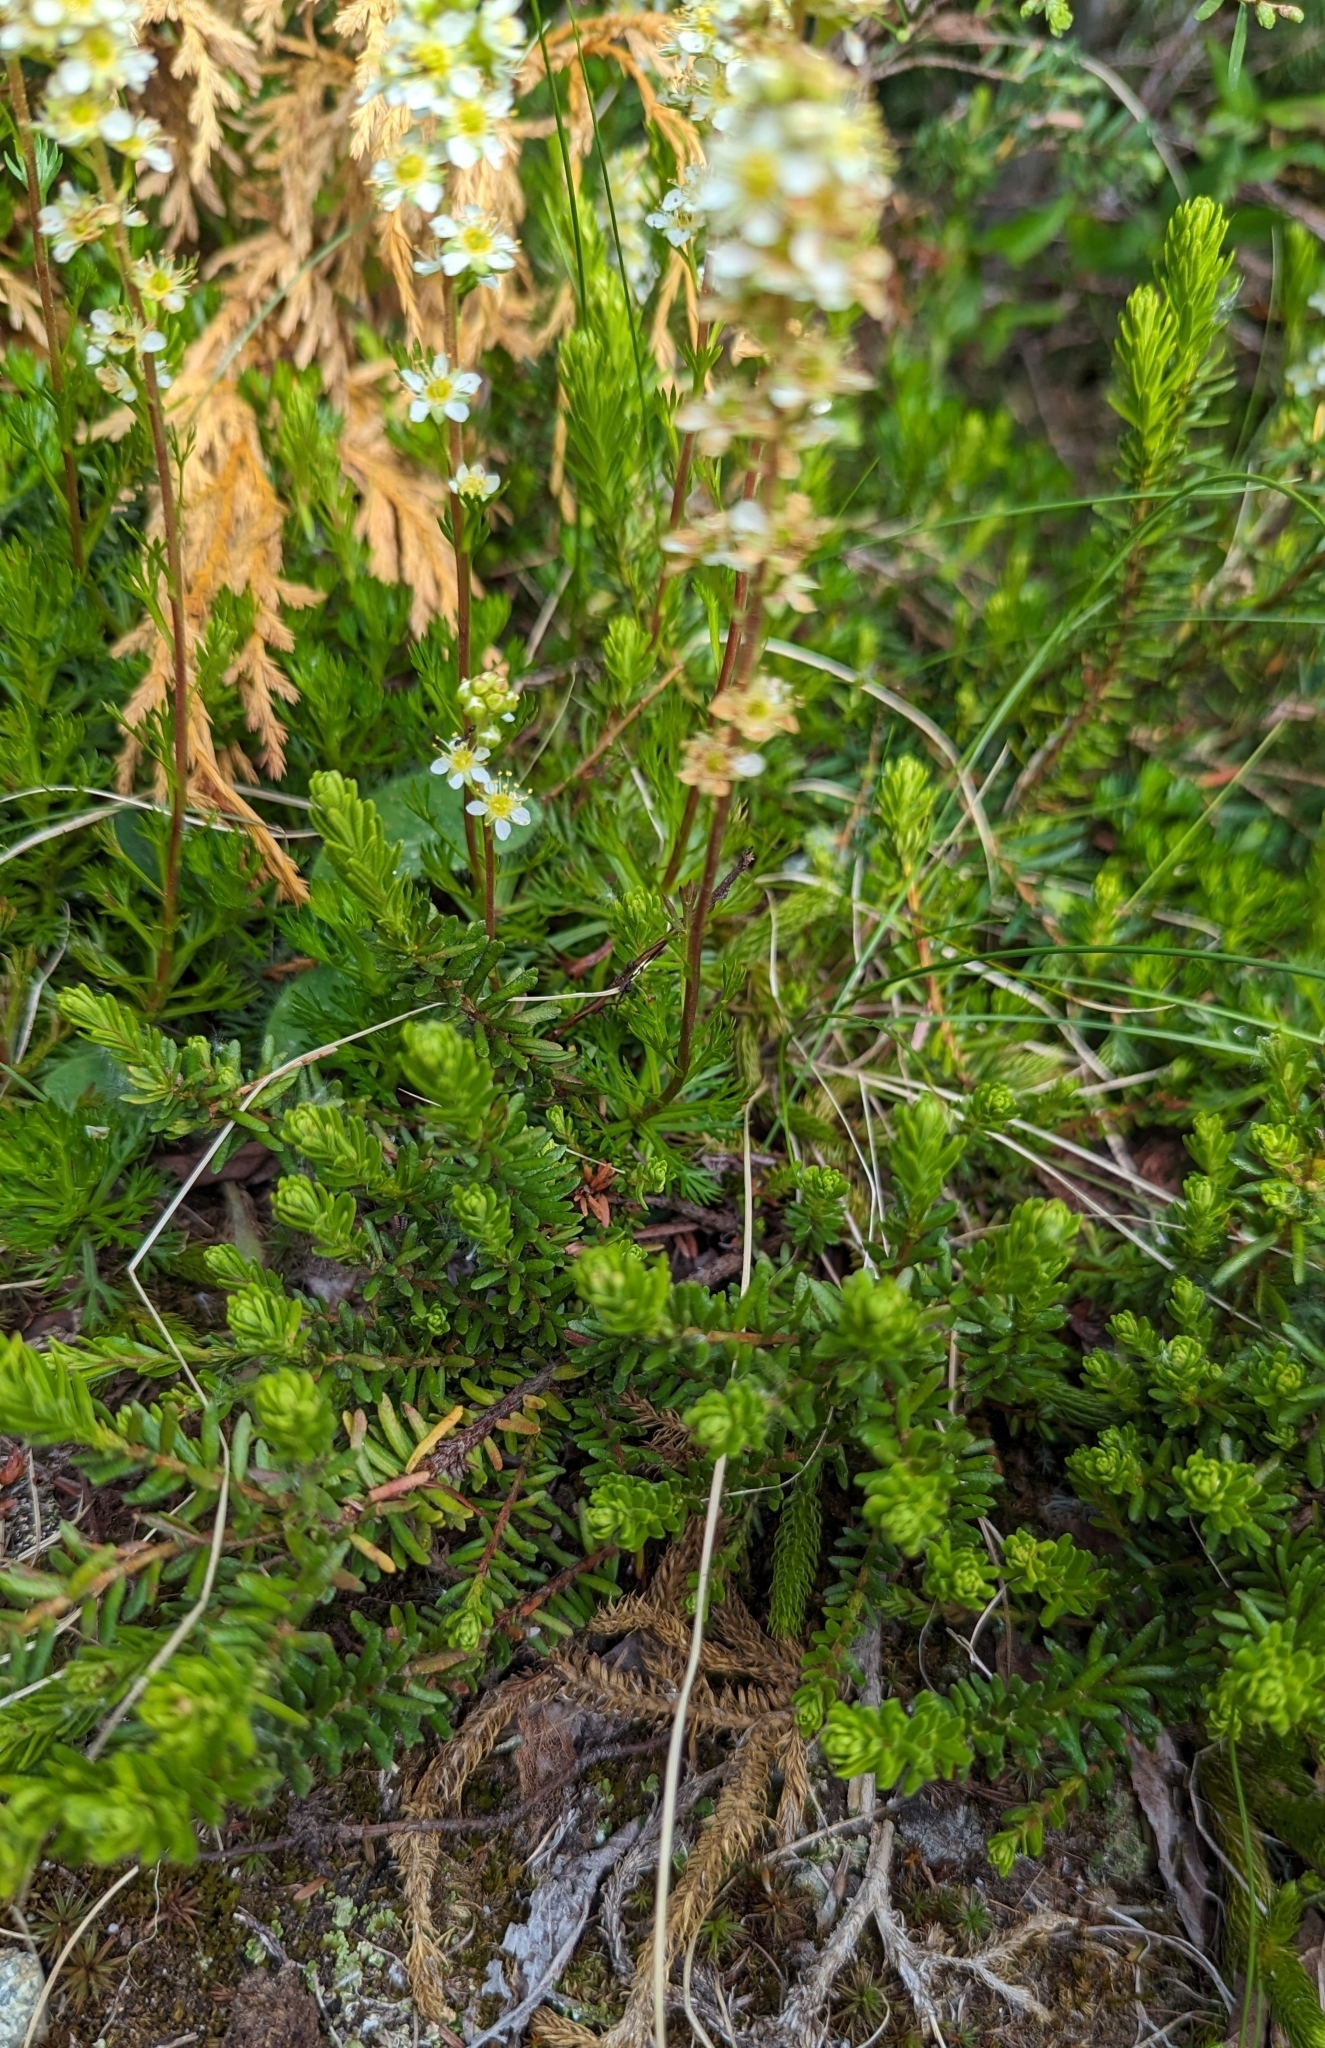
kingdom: Plantae
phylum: Tracheophyta
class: Magnoliopsida
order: Rosales
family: Rosaceae
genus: Luetkea
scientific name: Luetkea pectinata
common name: Partridgefoot
